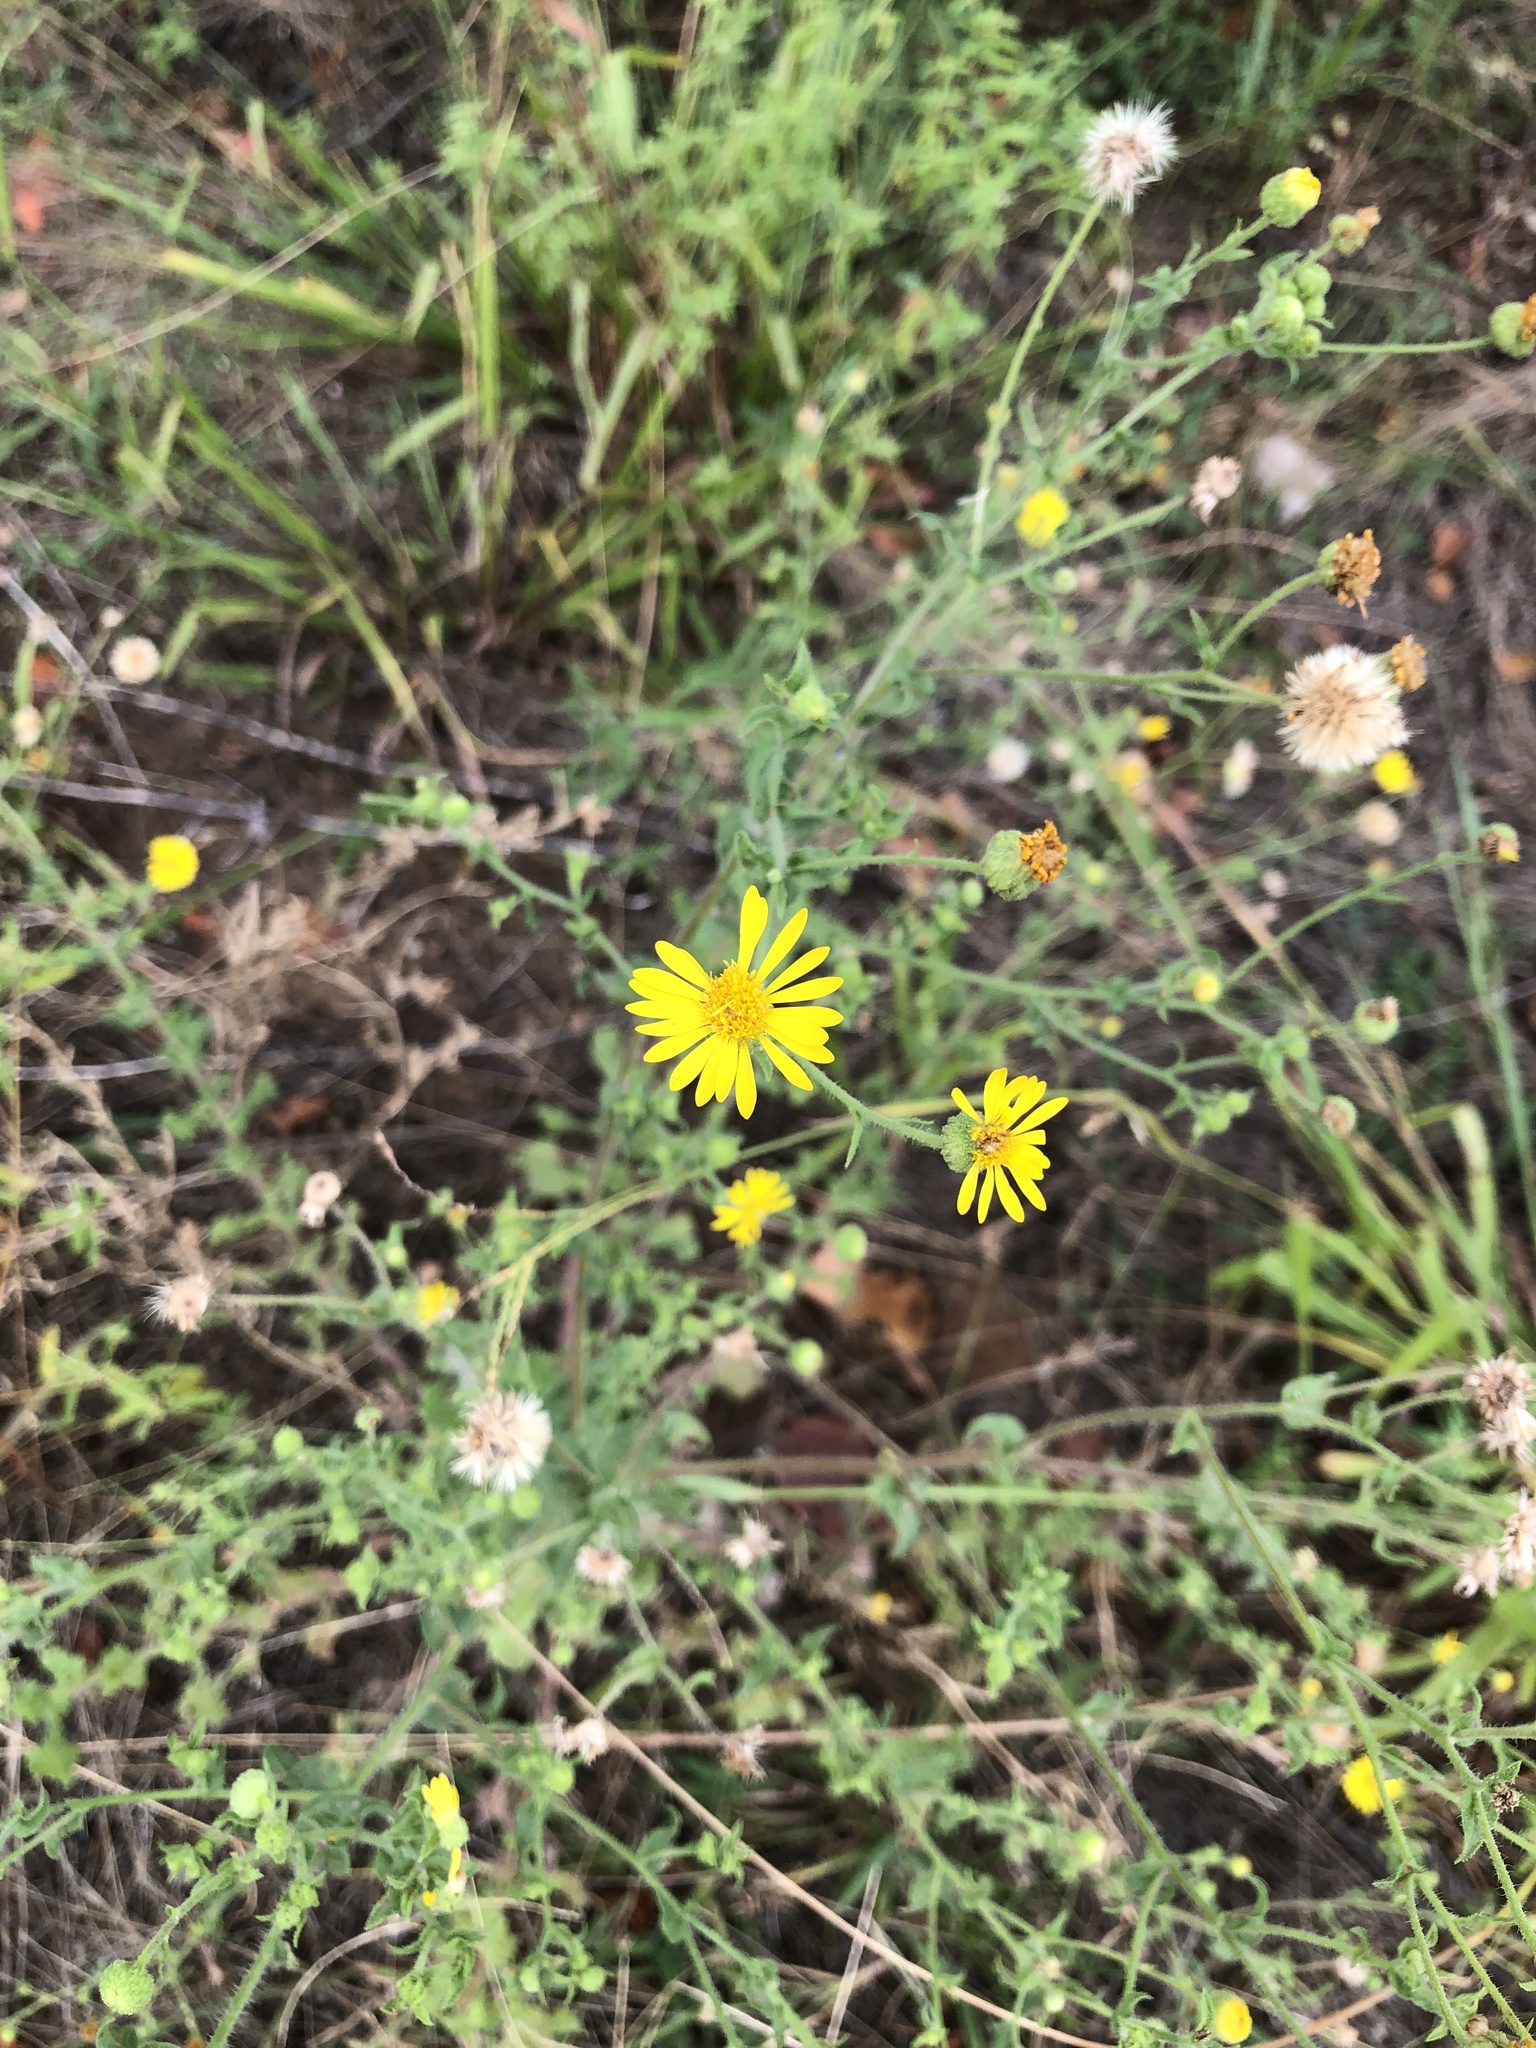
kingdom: Plantae
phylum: Tracheophyta
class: Magnoliopsida
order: Asterales
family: Asteraceae
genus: Heterotheca
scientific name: Heterotheca subaxillaris
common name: Camphorweed
